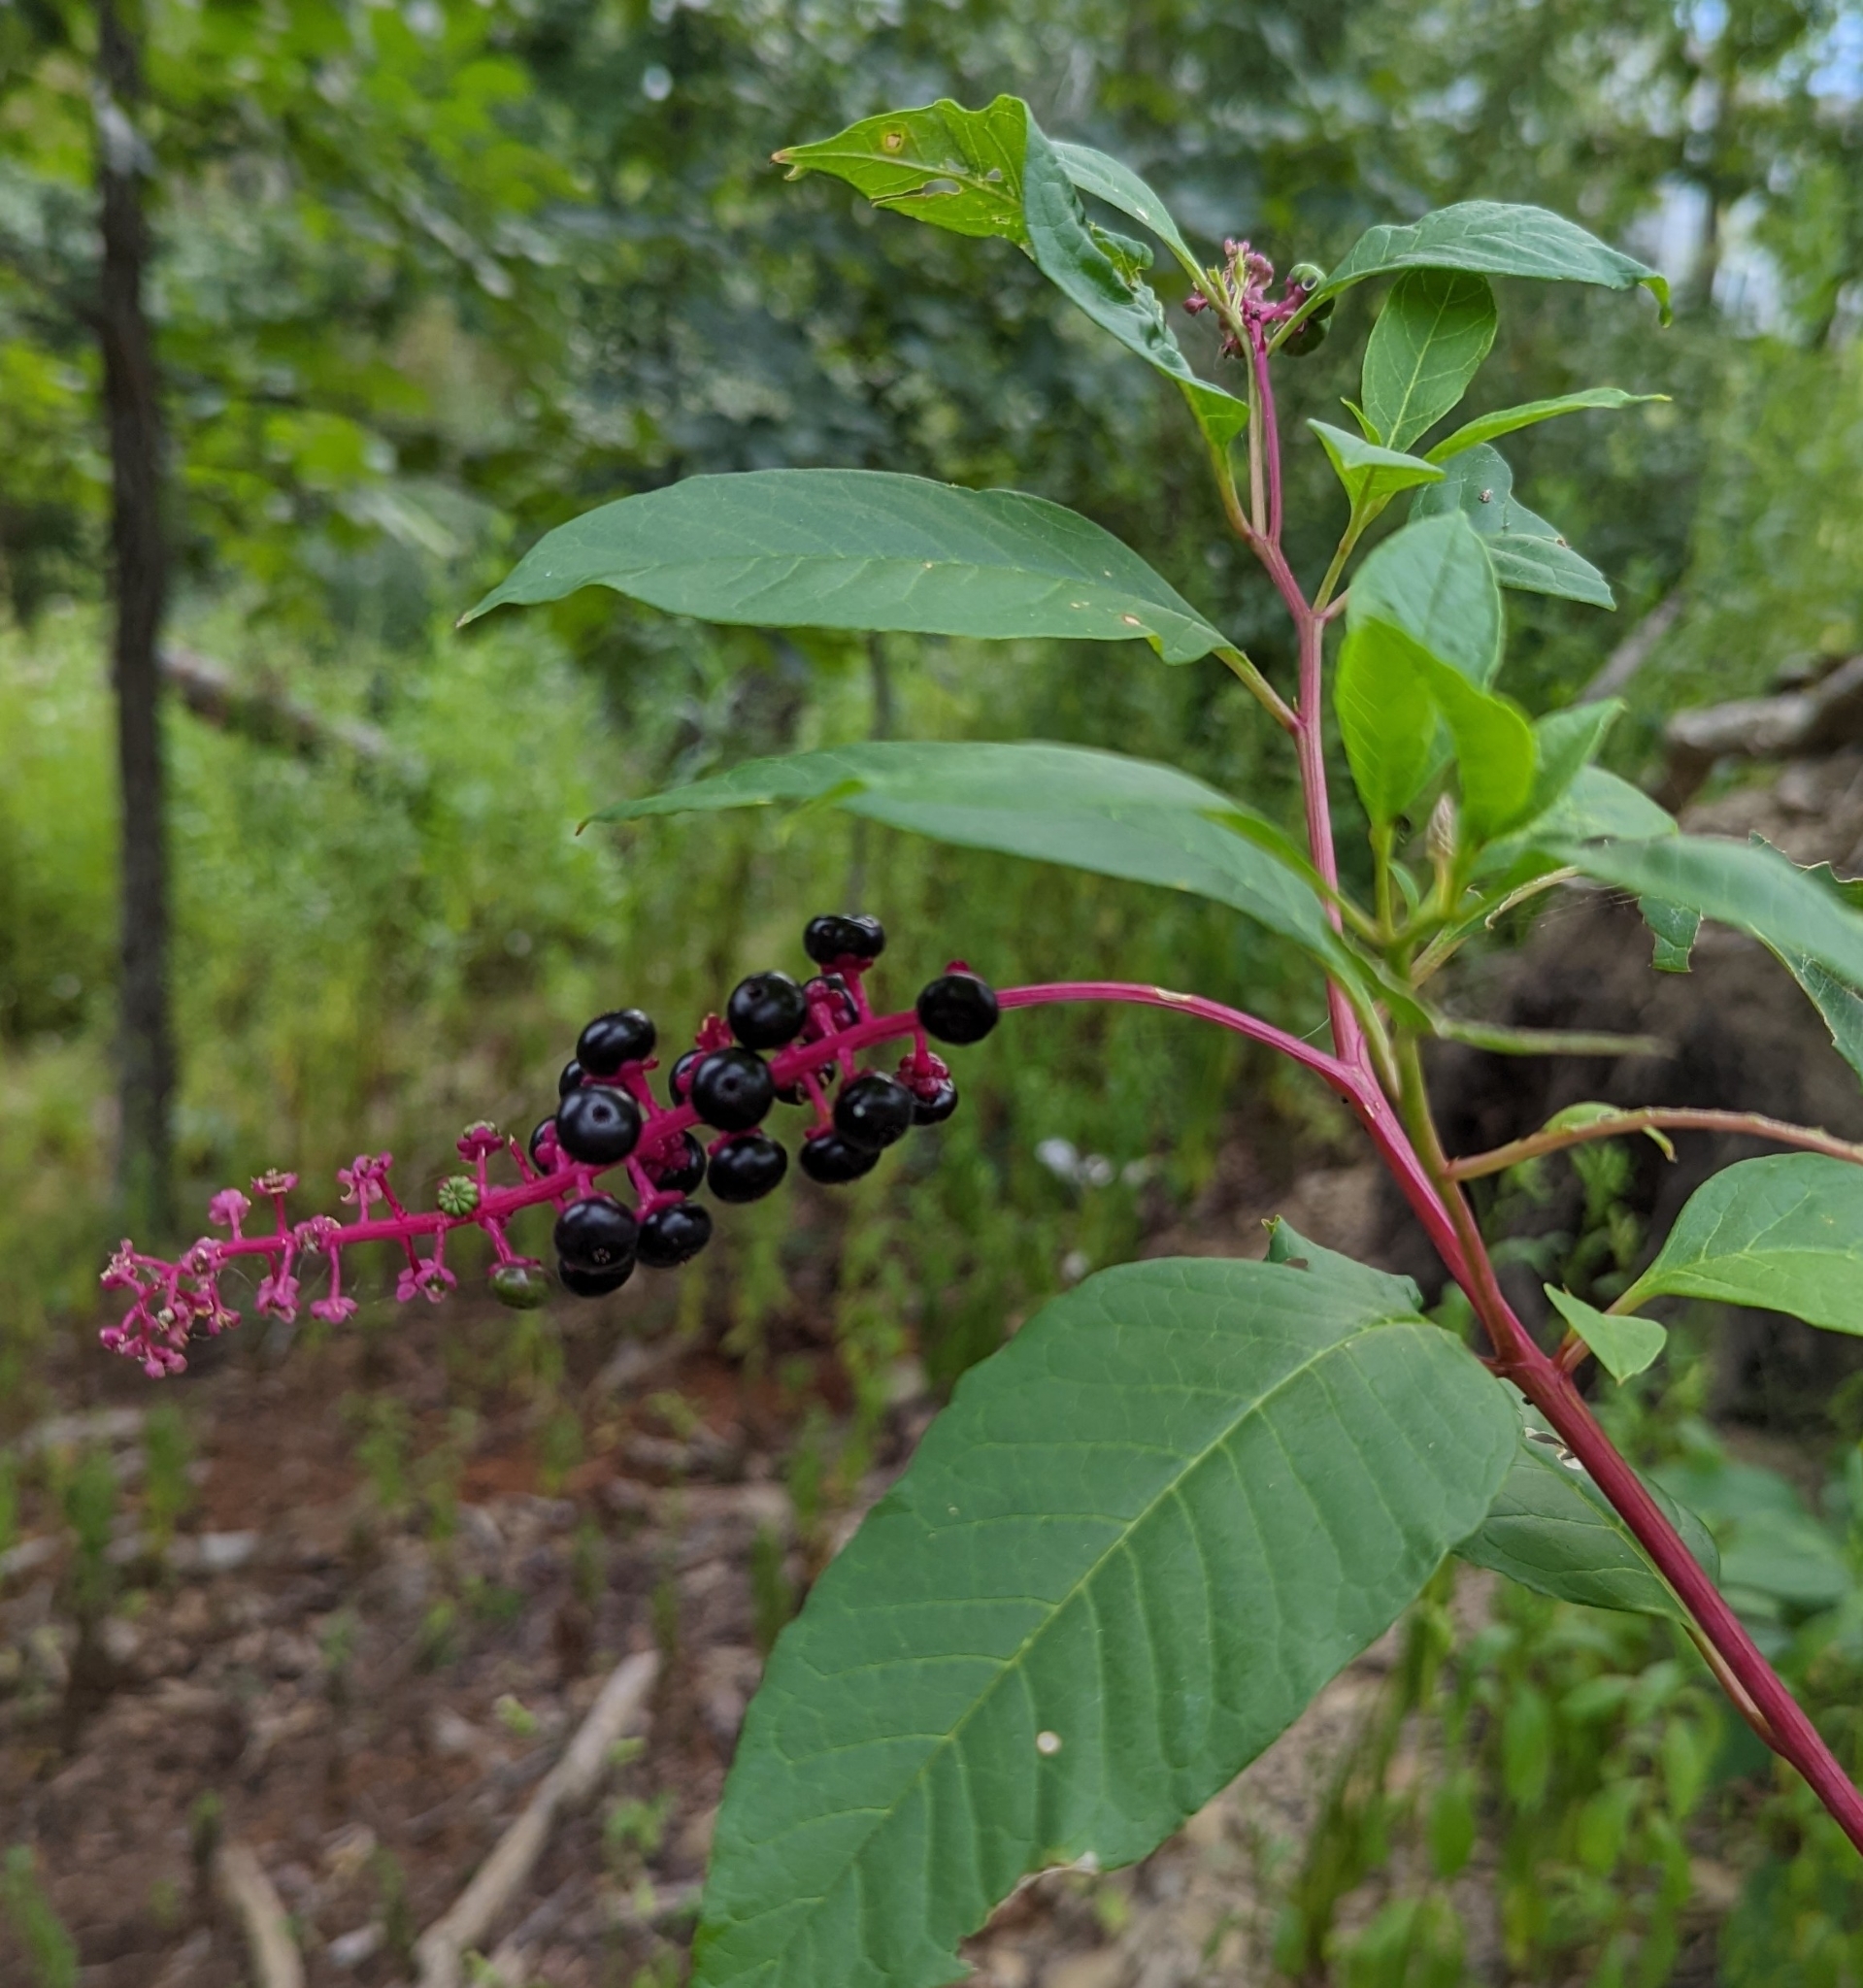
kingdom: Plantae
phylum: Tracheophyta
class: Magnoliopsida
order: Caryophyllales
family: Phytolaccaceae
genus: Phytolacca
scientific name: Phytolacca americana
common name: American pokeweed
